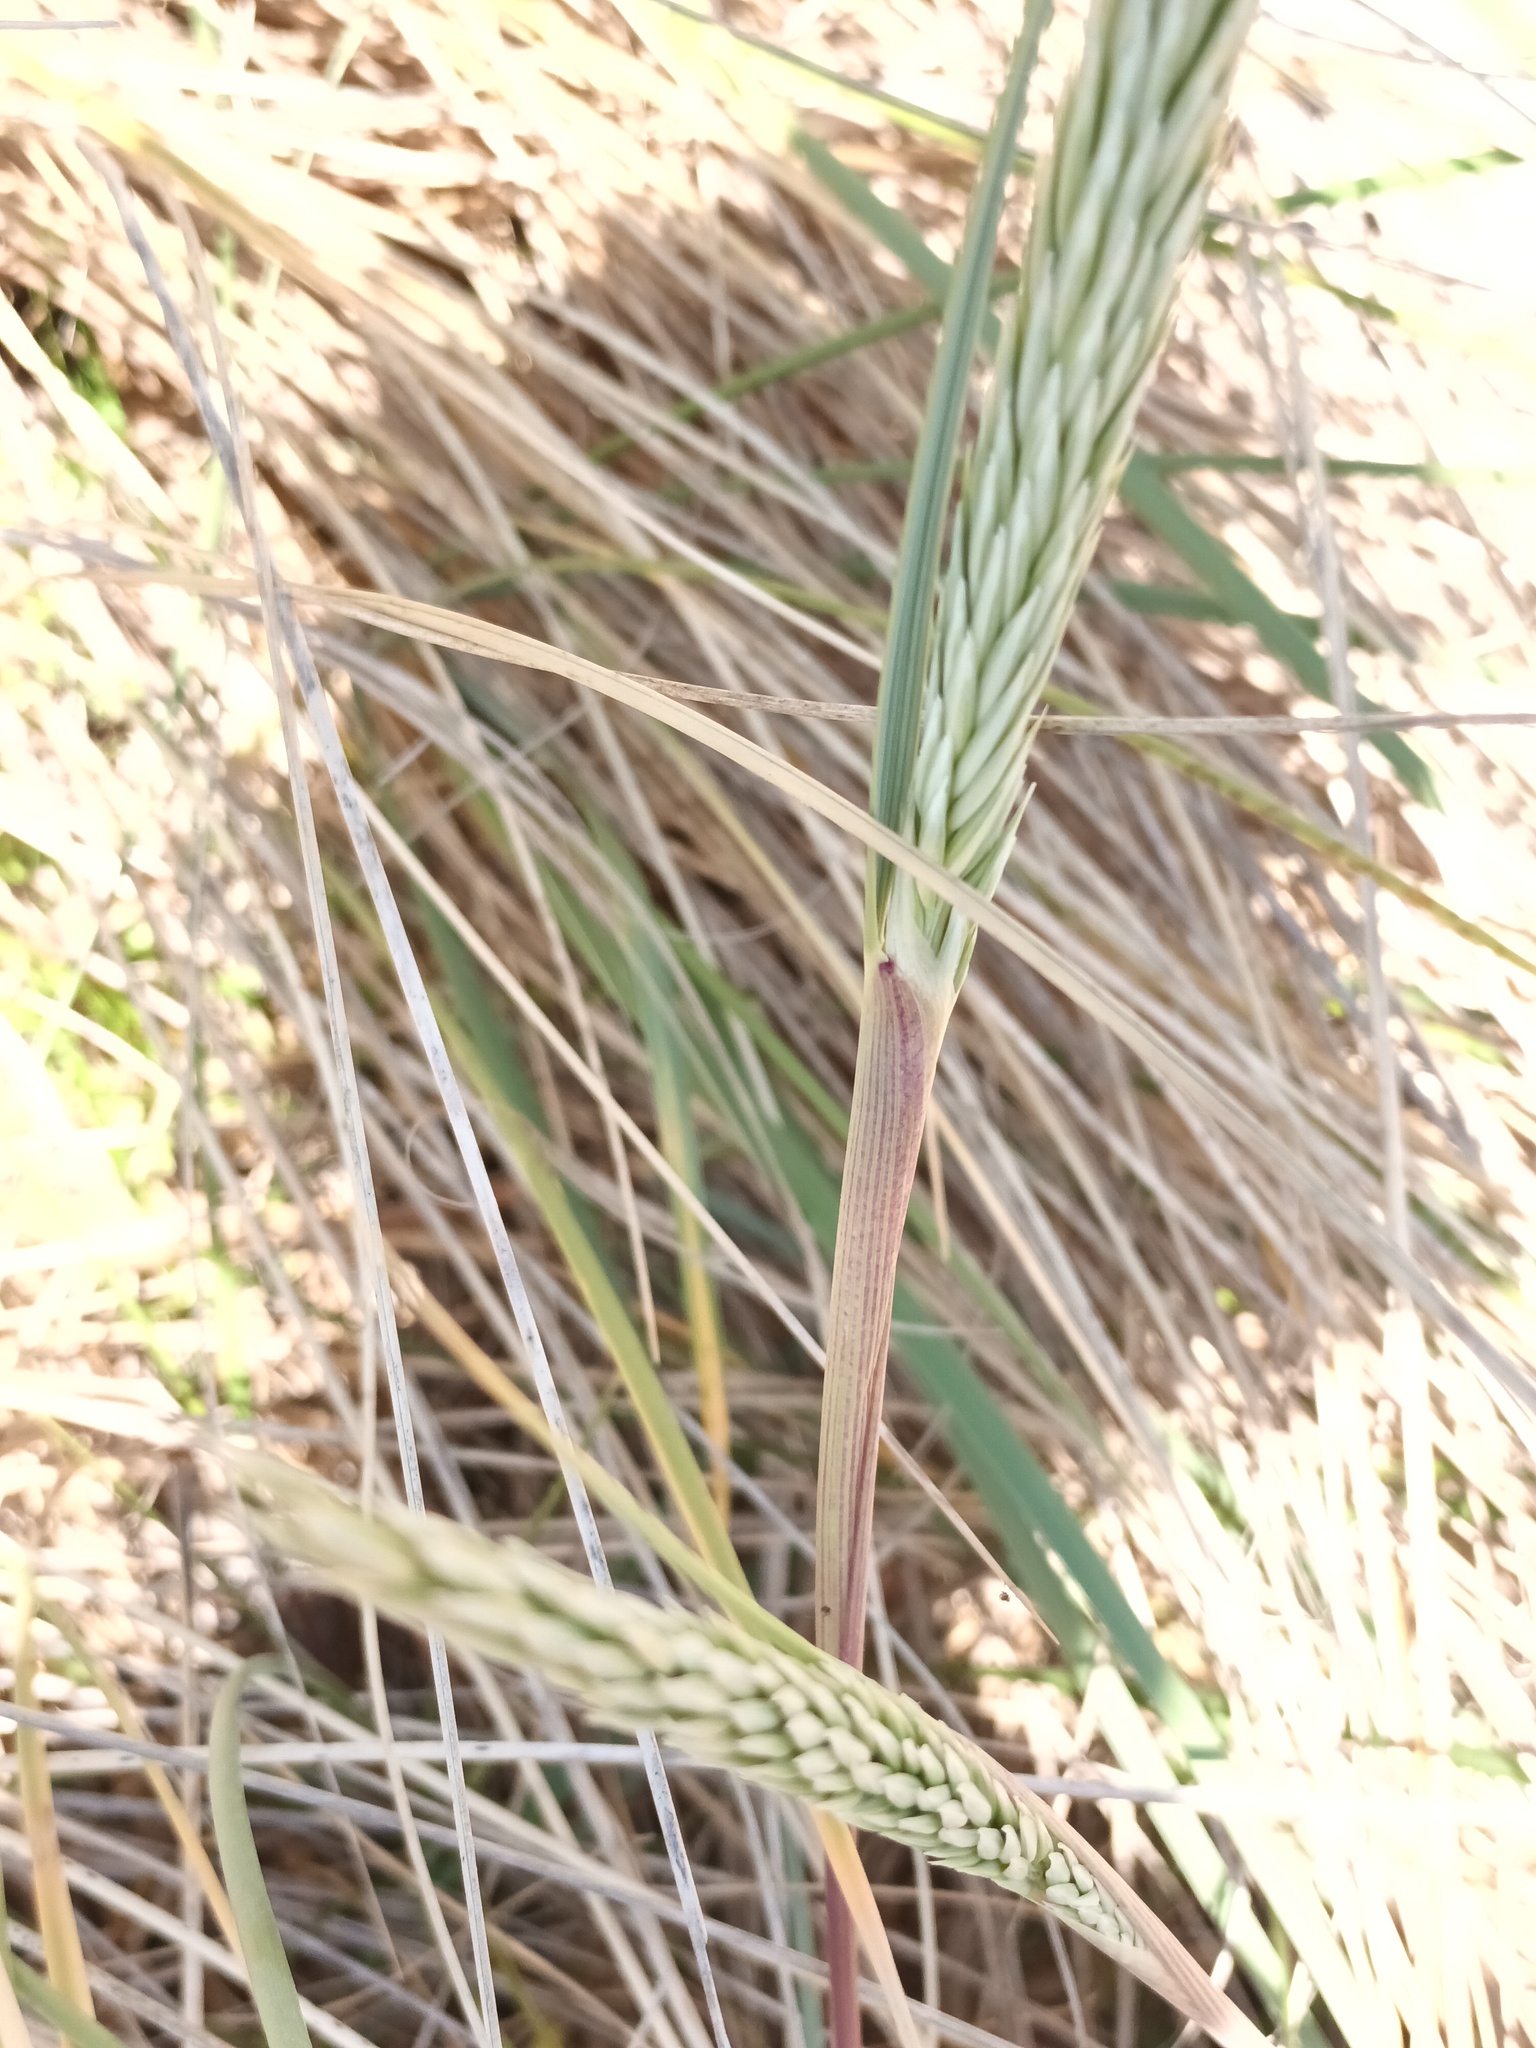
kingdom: Plantae
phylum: Tracheophyta
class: Liliopsida
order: Poales
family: Poaceae
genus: Calamagrostis
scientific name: Calamagrostis arenaria
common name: European beachgrass
